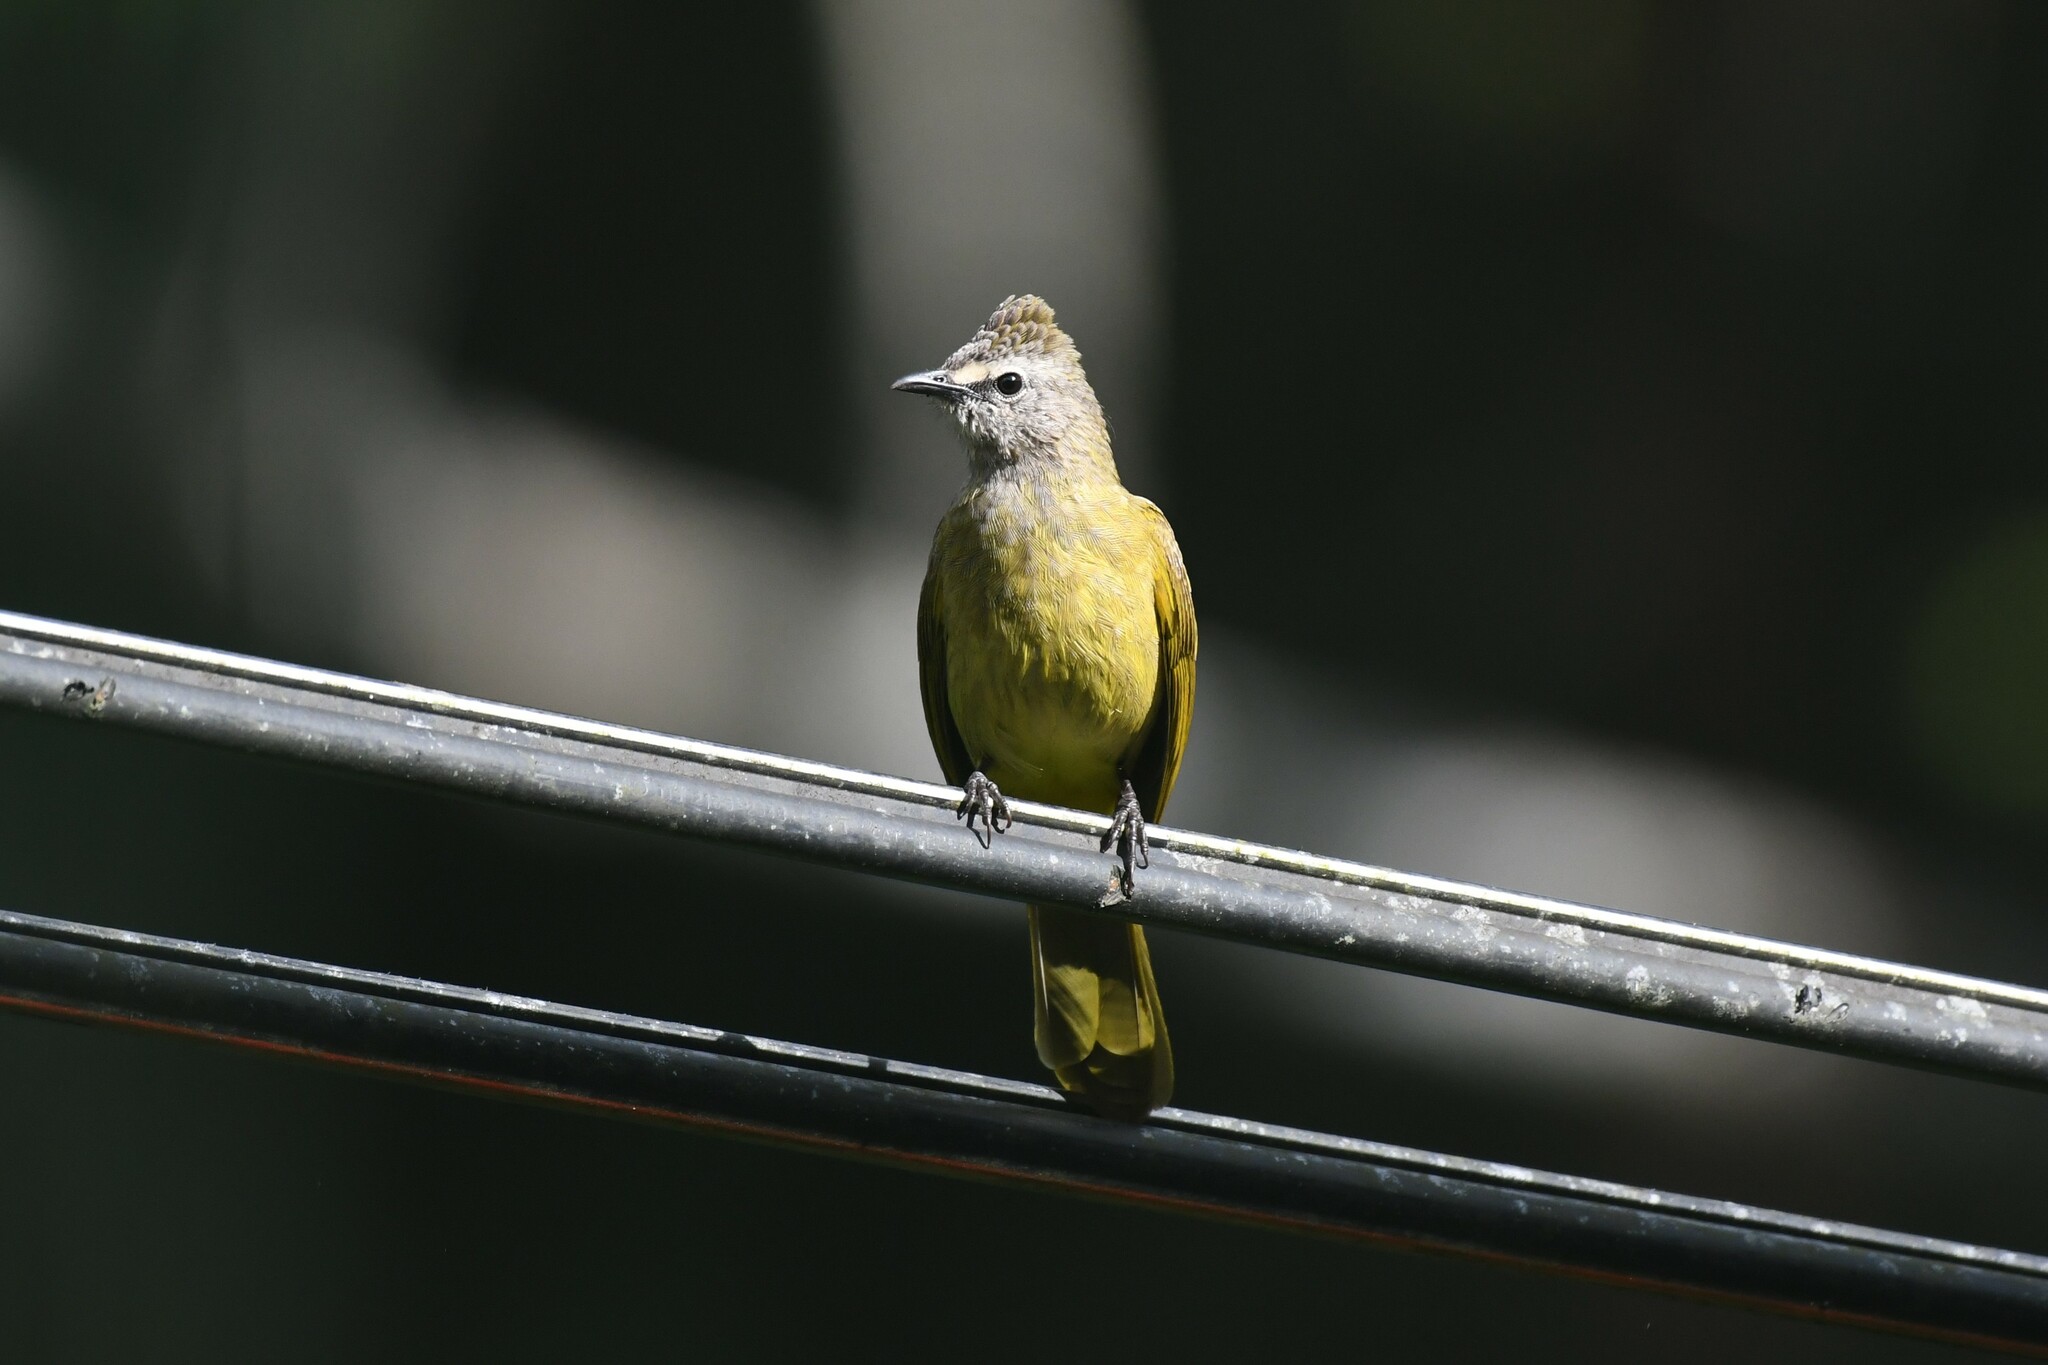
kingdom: Animalia
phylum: Chordata
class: Aves
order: Passeriformes
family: Pycnonotidae
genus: Pycnonotus
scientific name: Pycnonotus flavescens
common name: Flavescent bulbul
